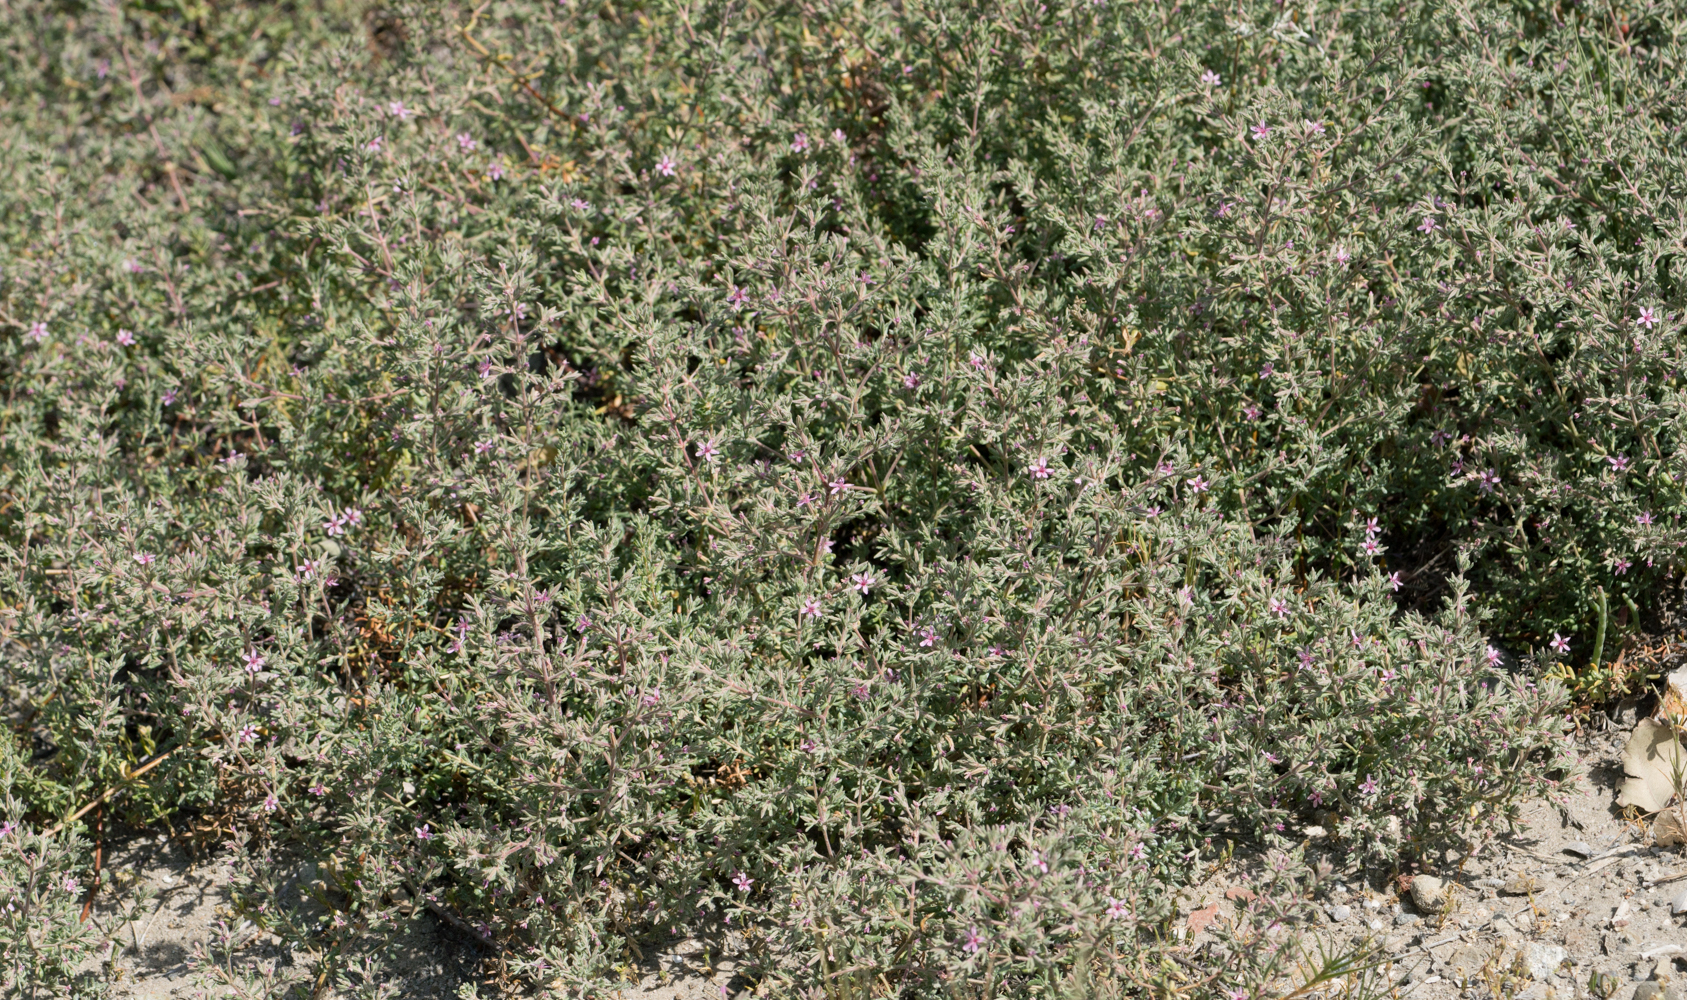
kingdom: Plantae
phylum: Tracheophyta
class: Magnoliopsida
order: Caryophyllales
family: Frankeniaceae
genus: Frankenia
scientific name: Frankenia salina
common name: Alkali seaheath
